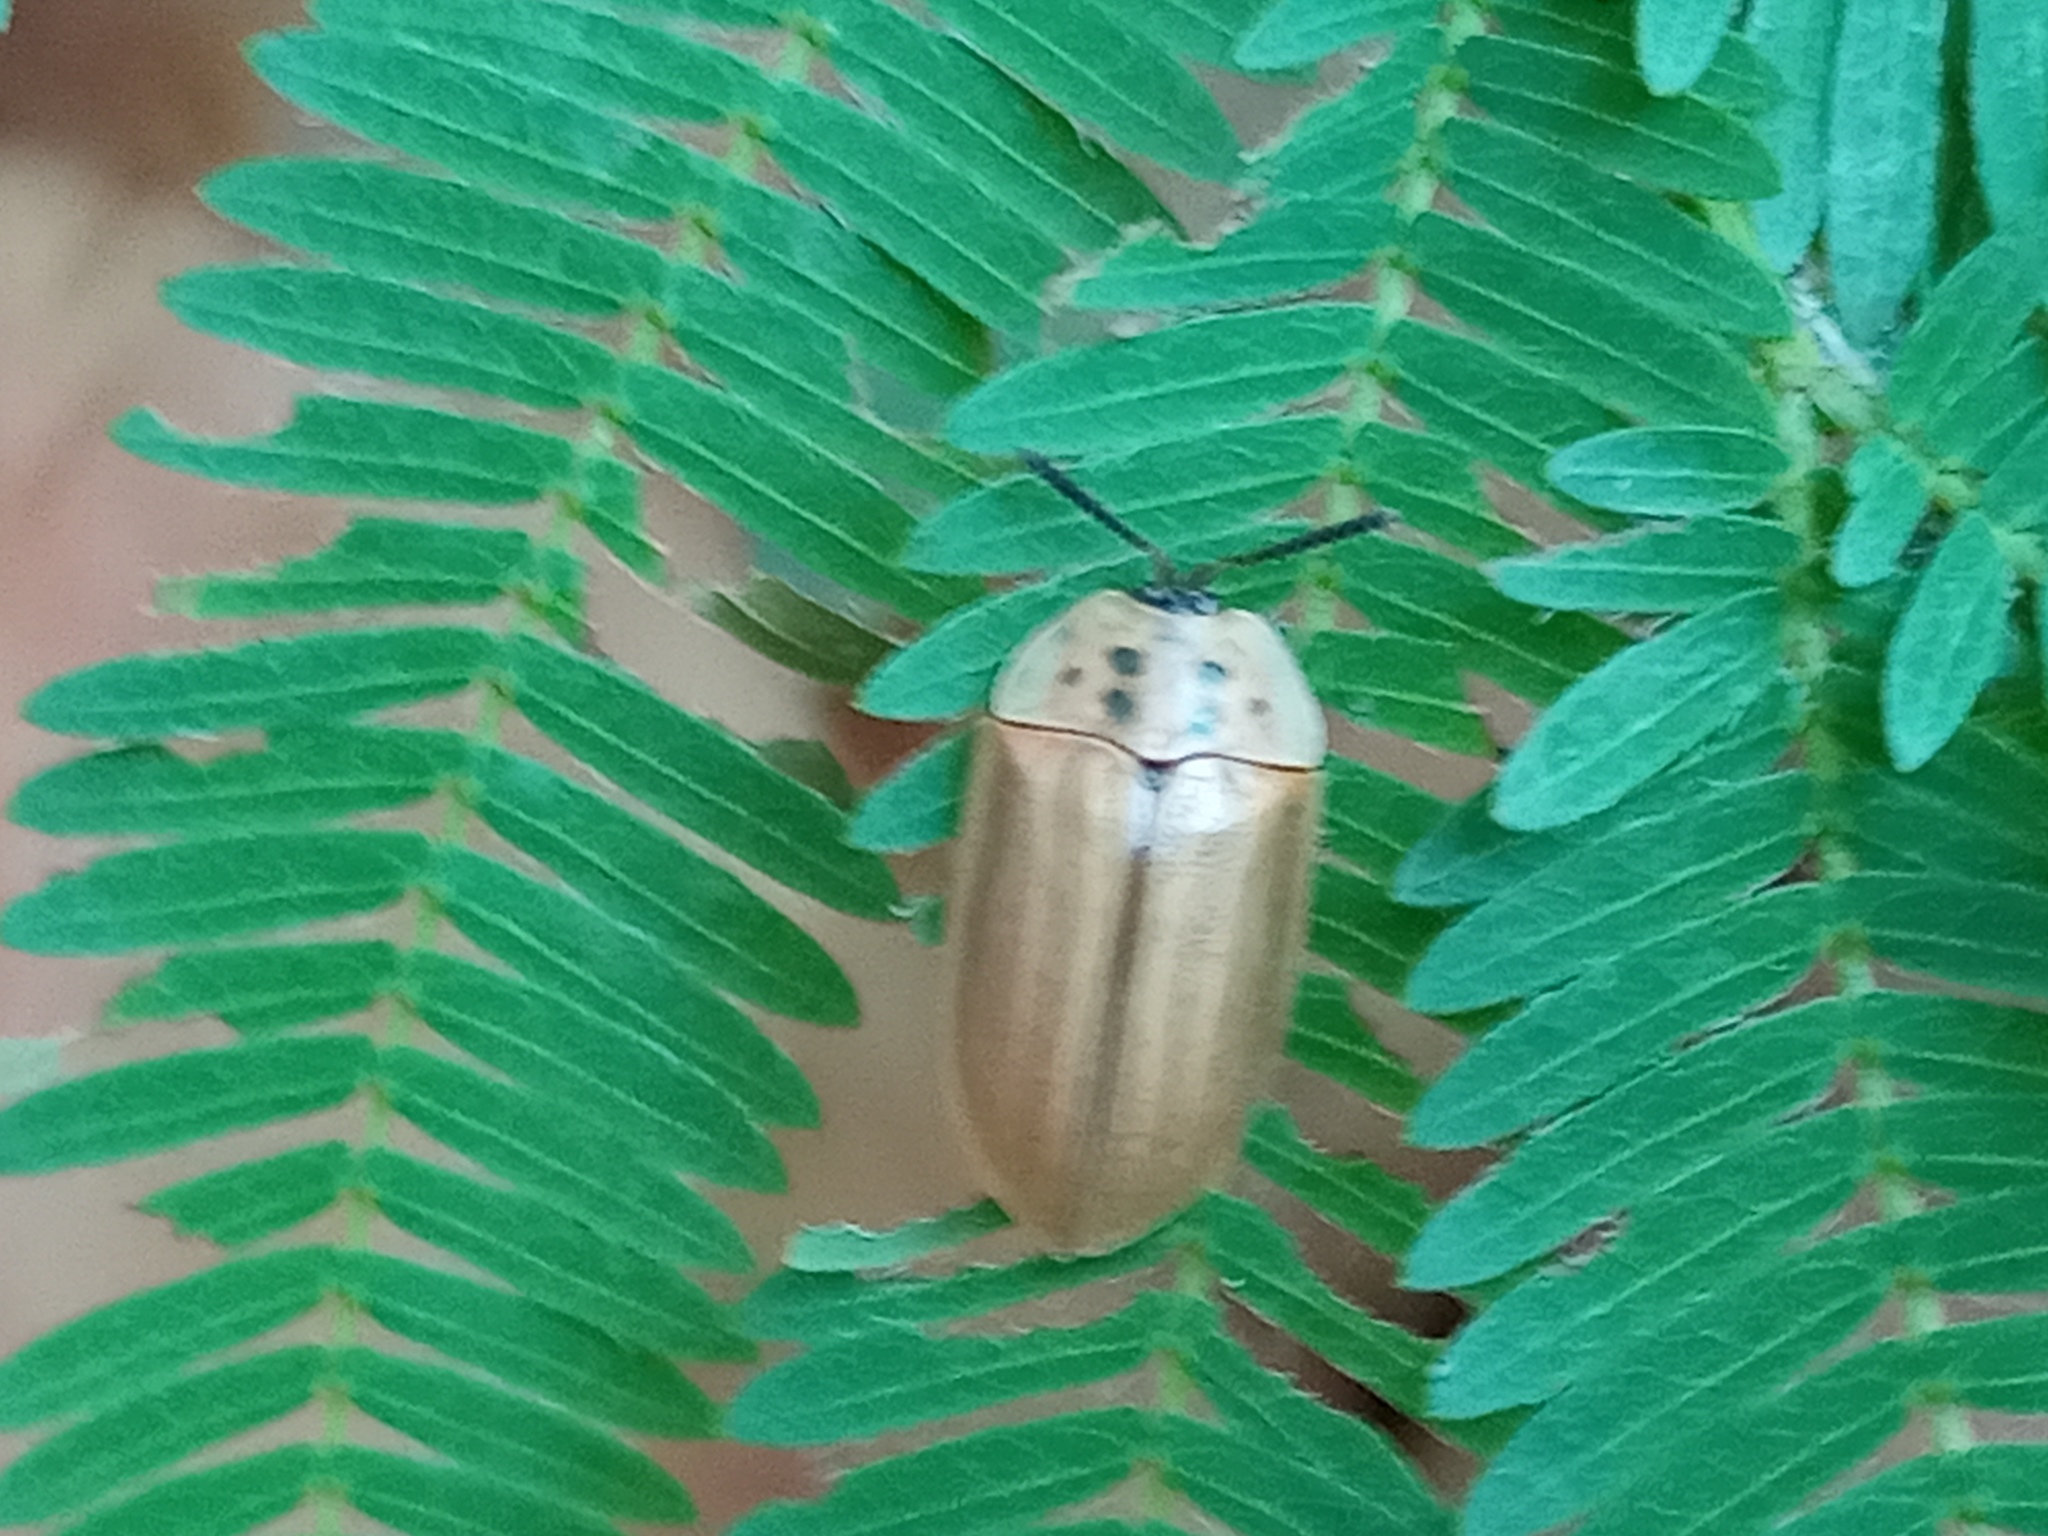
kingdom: Animalia
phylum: Arthropoda
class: Insecta
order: Coleoptera
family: Chrysomelidae
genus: Eutheria
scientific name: Eutheria longula
